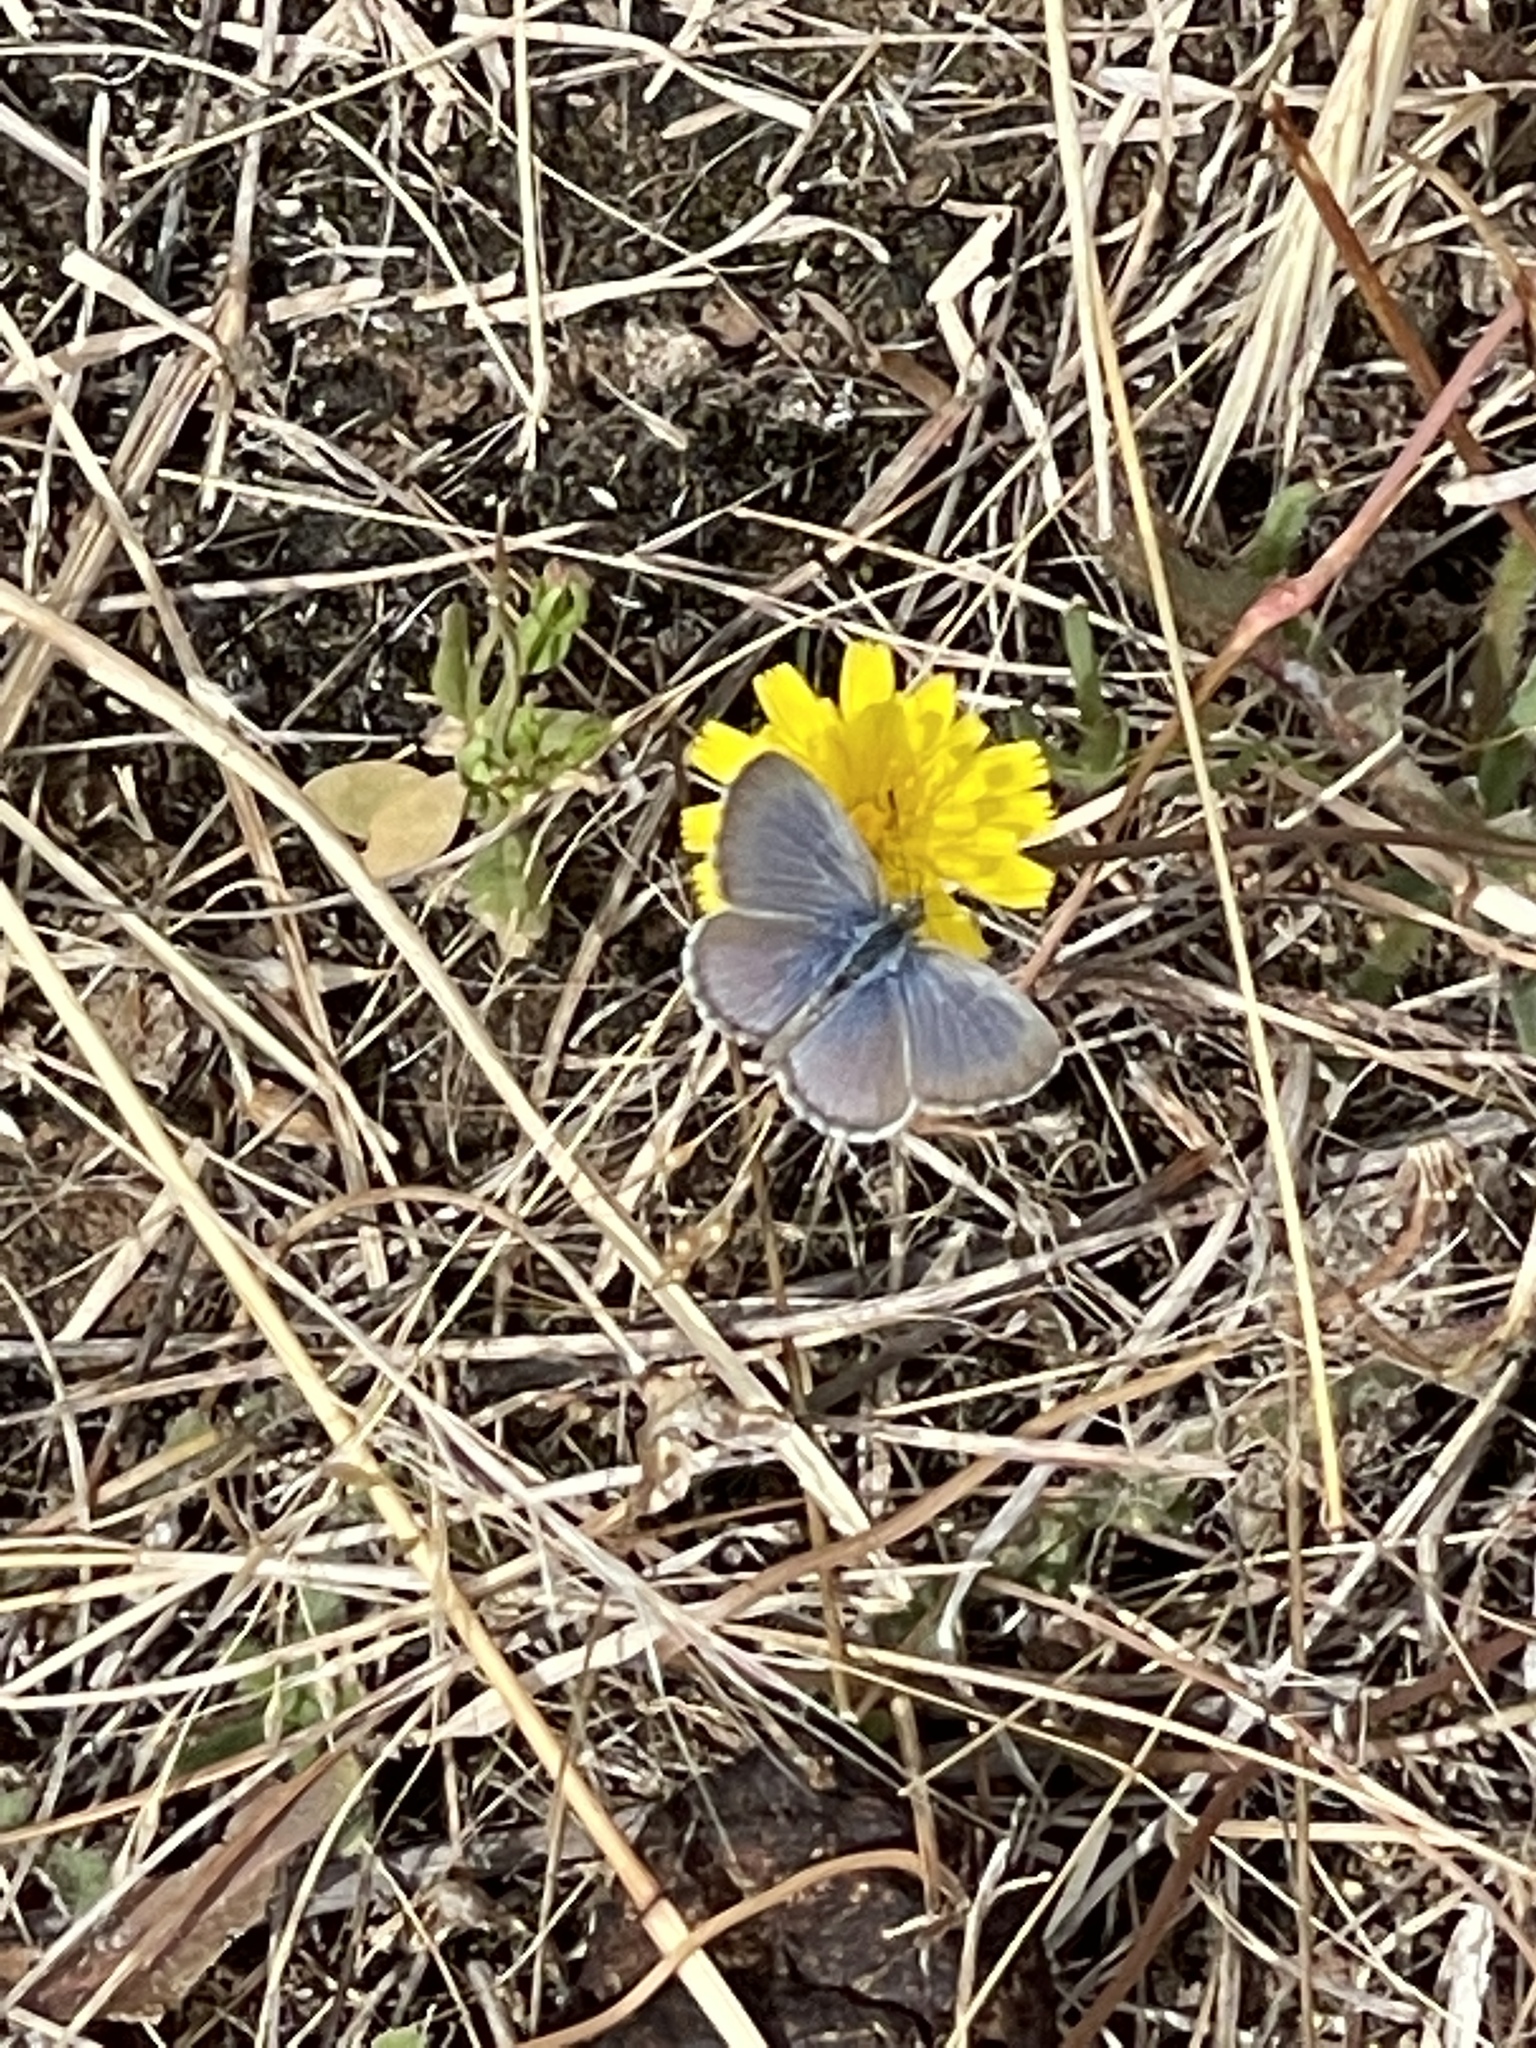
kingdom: Animalia
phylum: Arthropoda
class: Insecta
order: Lepidoptera
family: Lycaenidae
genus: Zizina
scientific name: Zizina labradus
